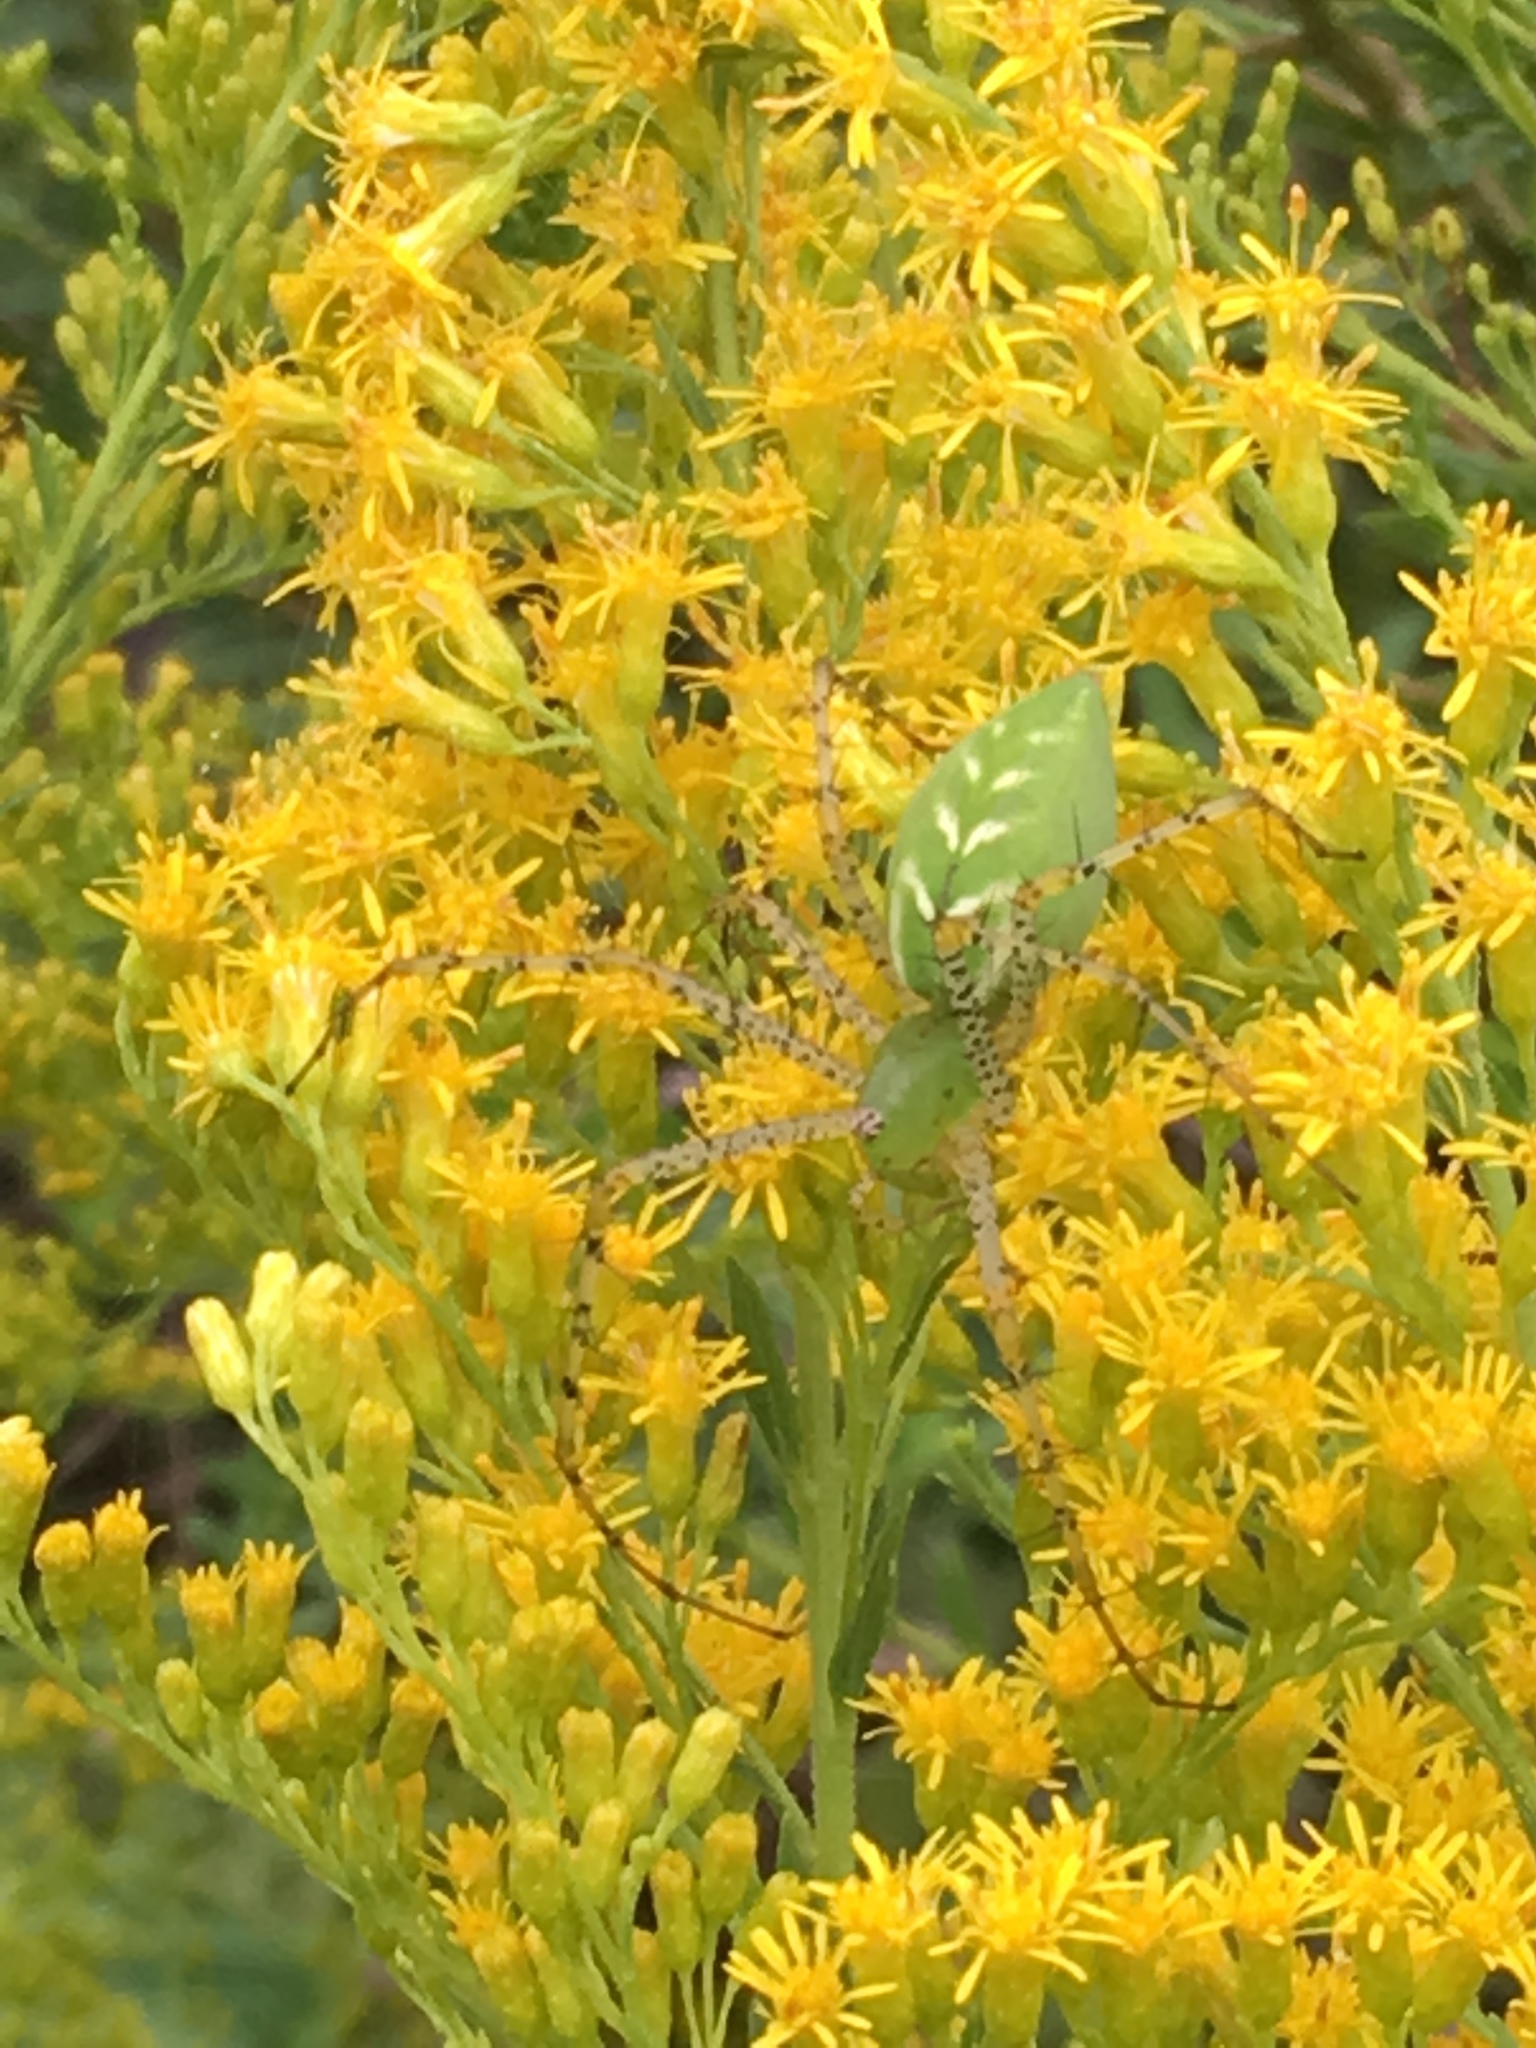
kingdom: Animalia
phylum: Arthropoda
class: Arachnida
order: Araneae
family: Oxyopidae
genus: Peucetia
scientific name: Peucetia viridans
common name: Lynx spiders
